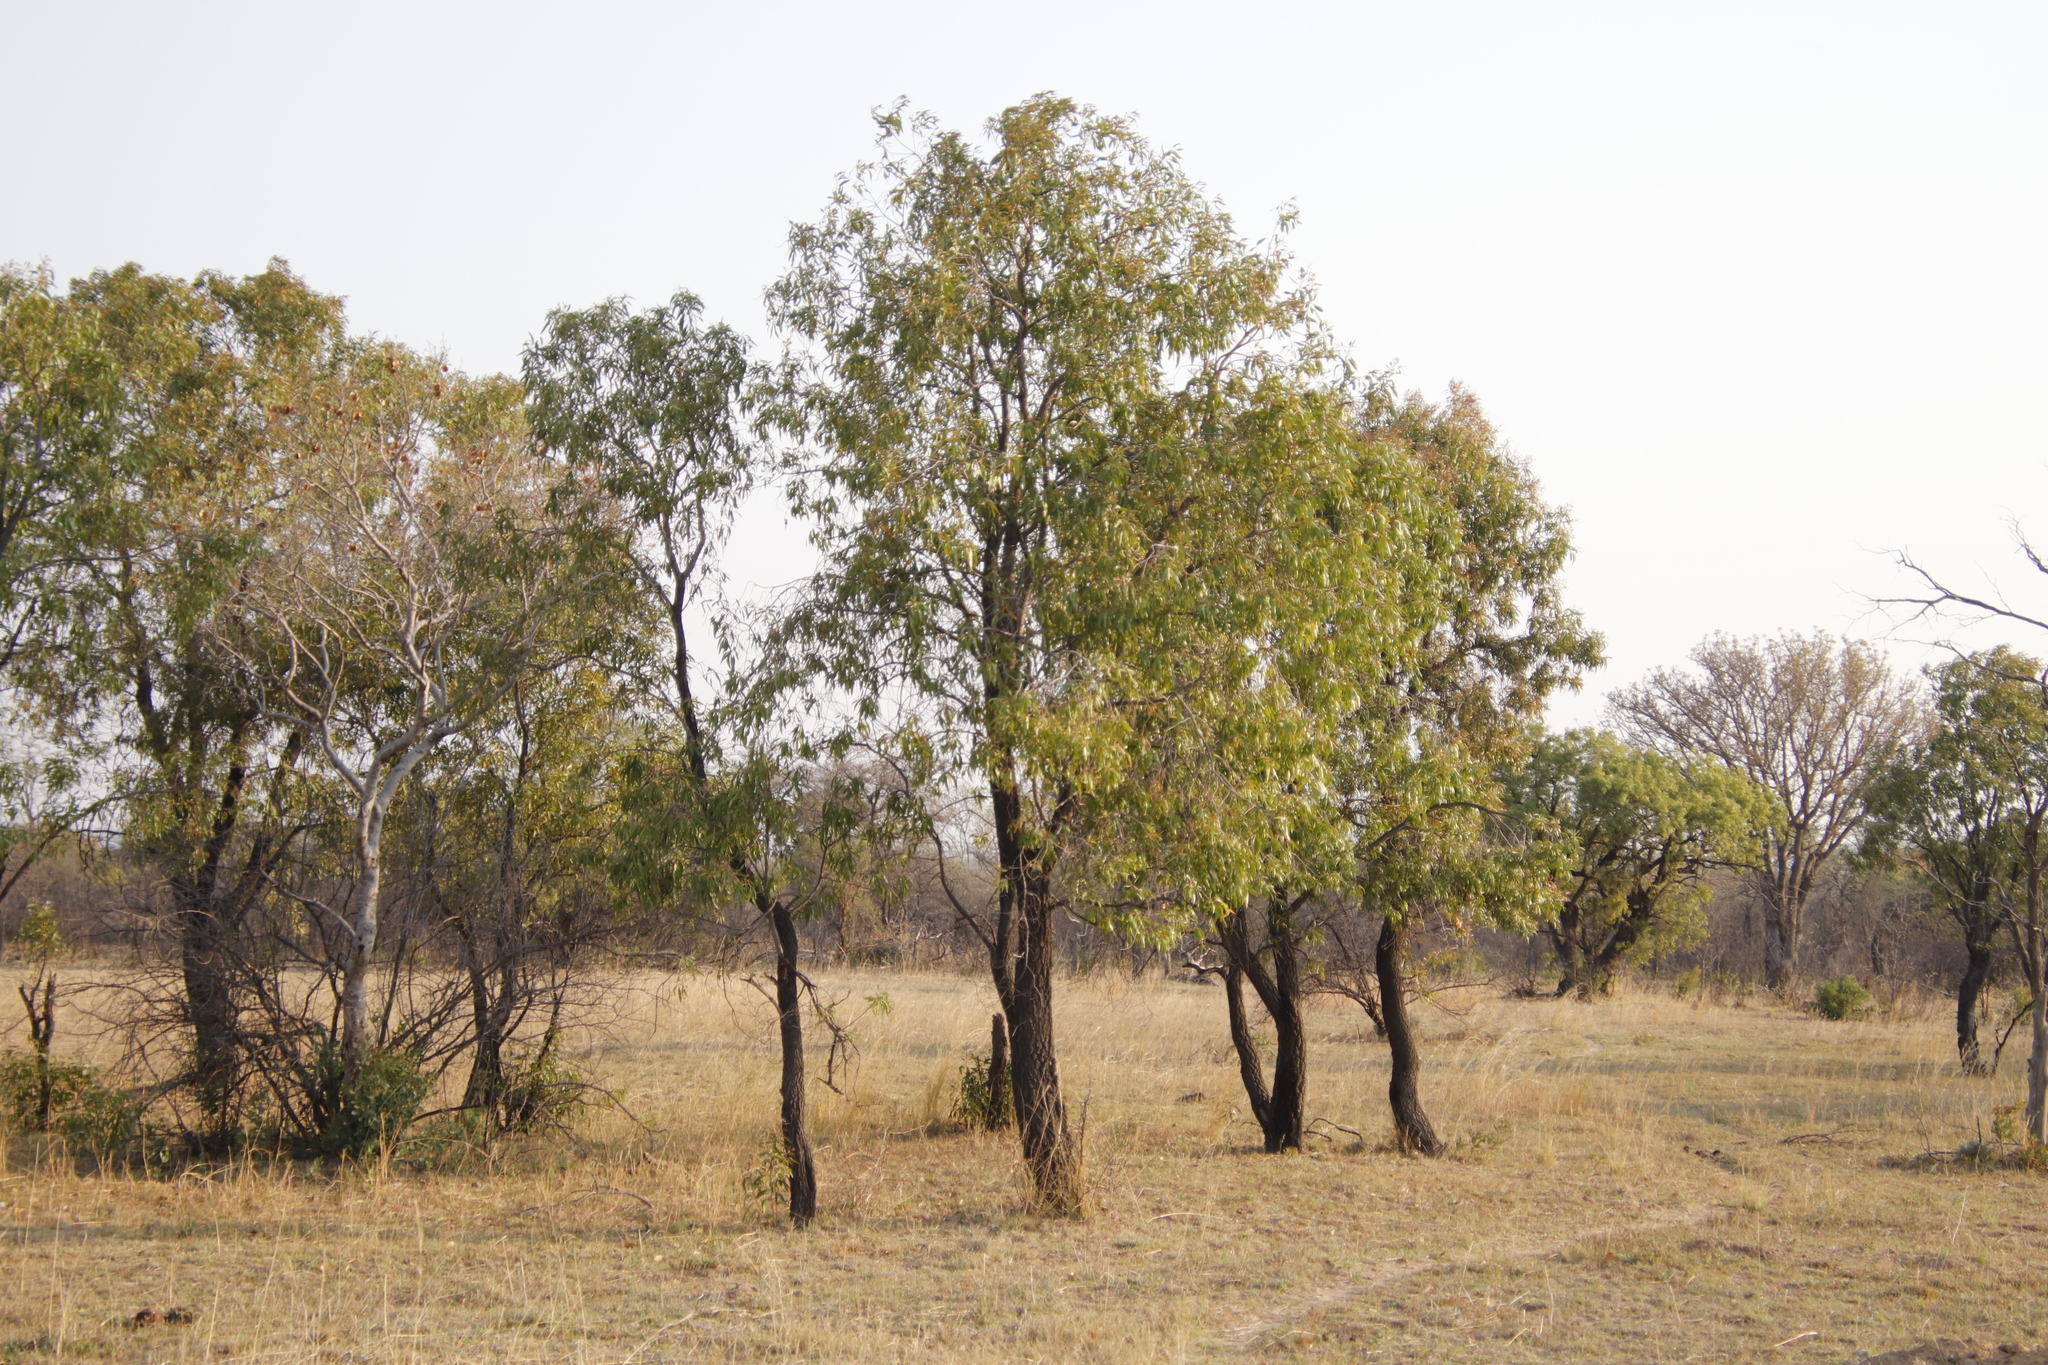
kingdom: Plantae
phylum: Tracheophyta
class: Magnoliopsida
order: Proteales
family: Proteaceae
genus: Faurea
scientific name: Faurea saligna
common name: African bean
